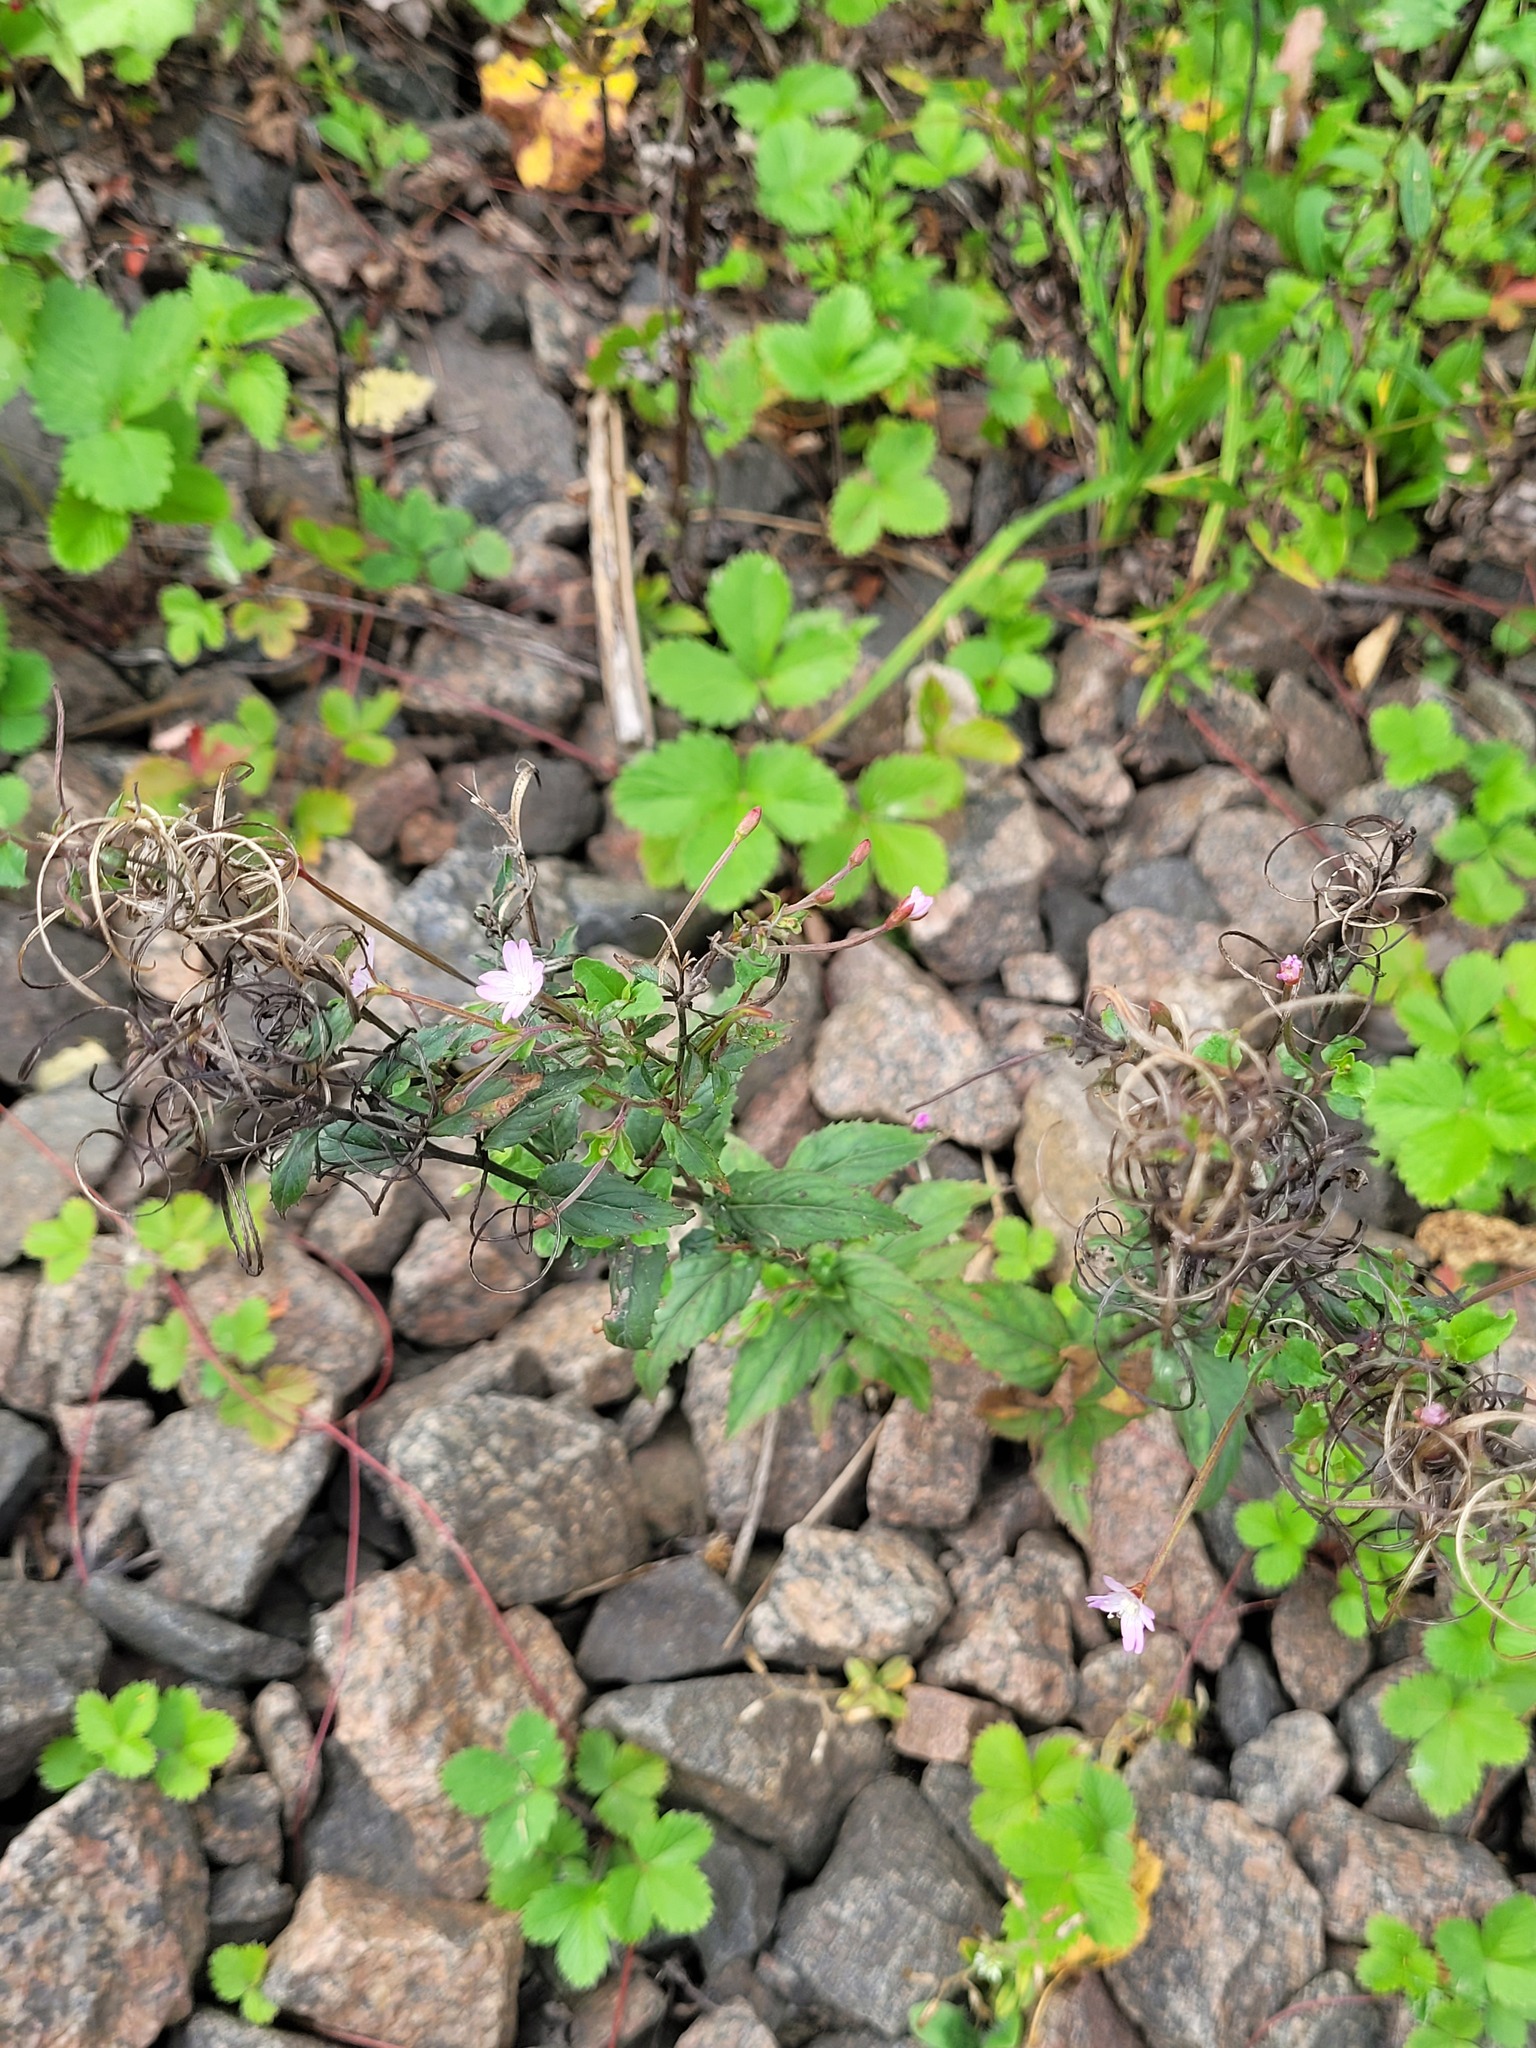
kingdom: Plantae
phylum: Tracheophyta
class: Magnoliopsida
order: Myrtales
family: Onagraceae
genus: Epilobium
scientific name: Epilobium montanum
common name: Broad-leaved willowherb
